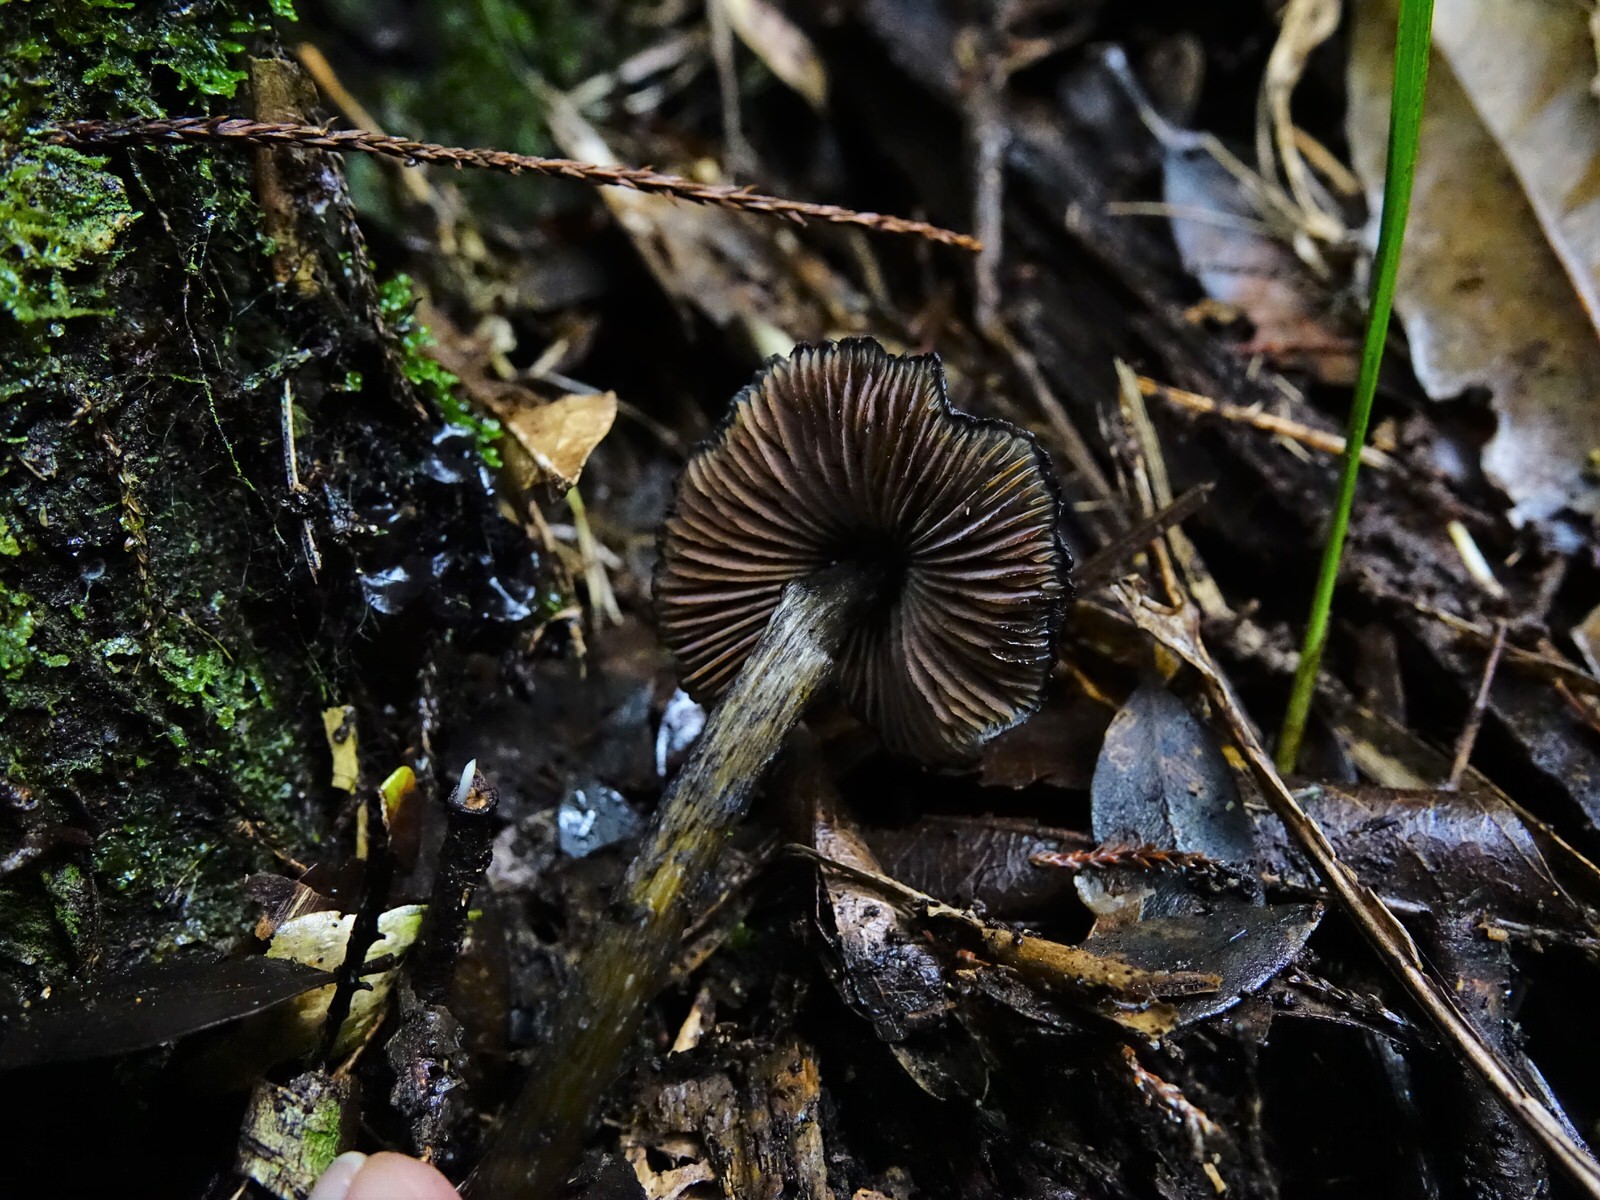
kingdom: Fungi
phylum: Basidiomycota
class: Agaricomycetes
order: Agaricales
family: Hygrophoraceae
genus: Hygrocybe
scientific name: Hygrocybe astatogala
